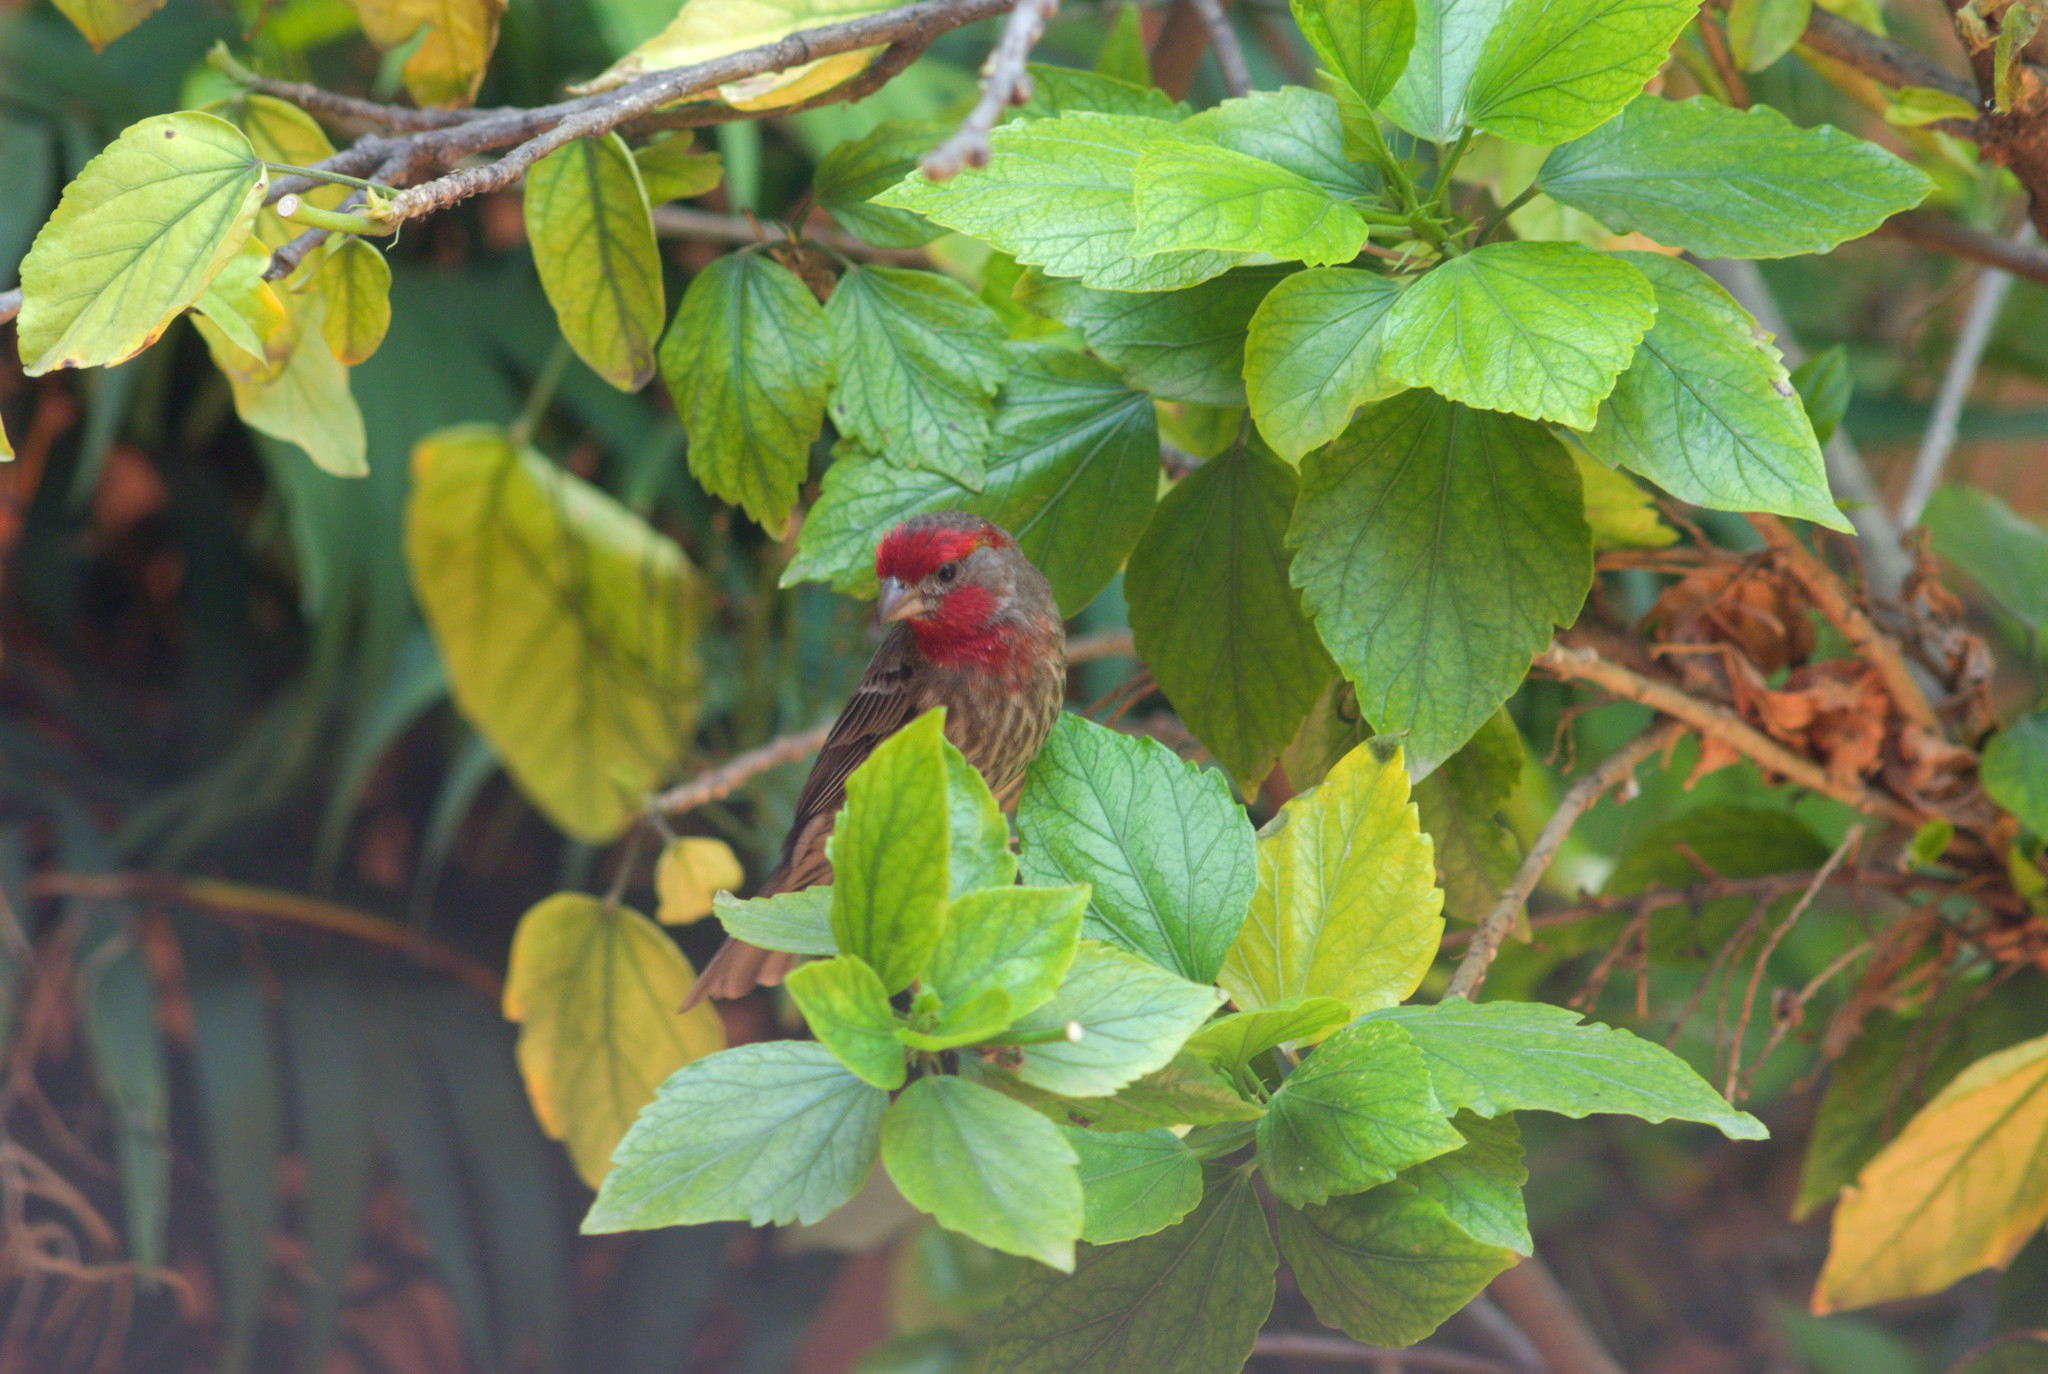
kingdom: Animalia
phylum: Chordata
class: Aves
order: Passeriformes
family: Fringillidae
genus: Haemorhous
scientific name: Haemorhous mexicanus
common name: House finch
